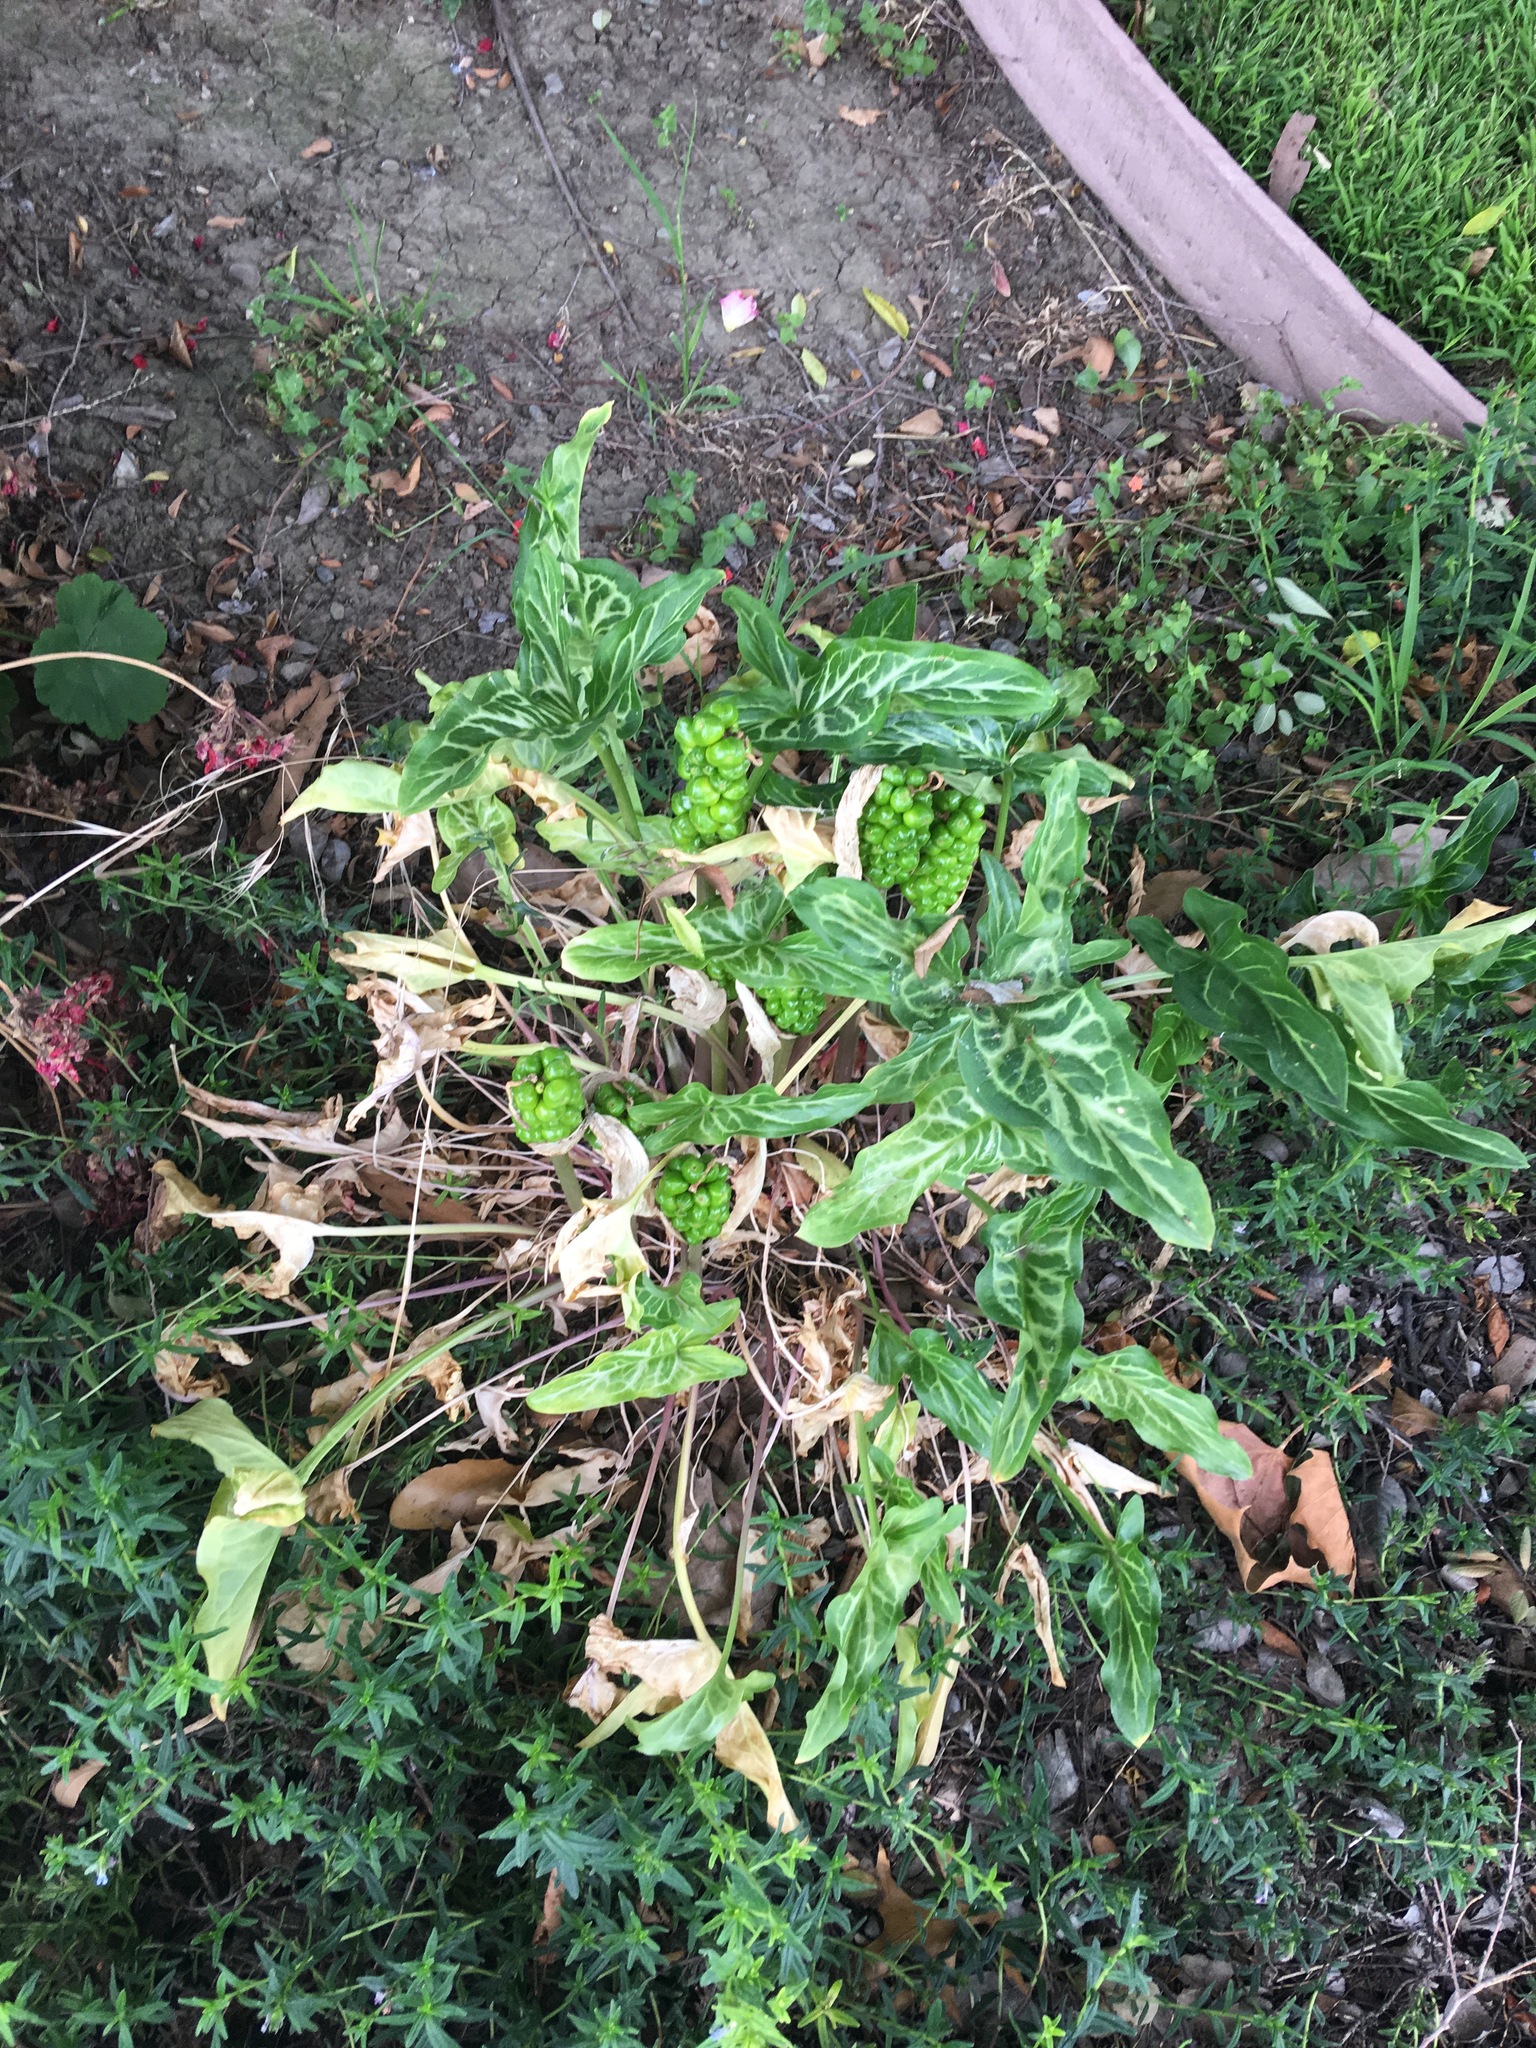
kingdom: Plantae
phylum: Tracheophyta
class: Liliopsida
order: Alismatales
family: Araceae
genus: Arum
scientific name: Arum italicum
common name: Italian lords-and-ladies
